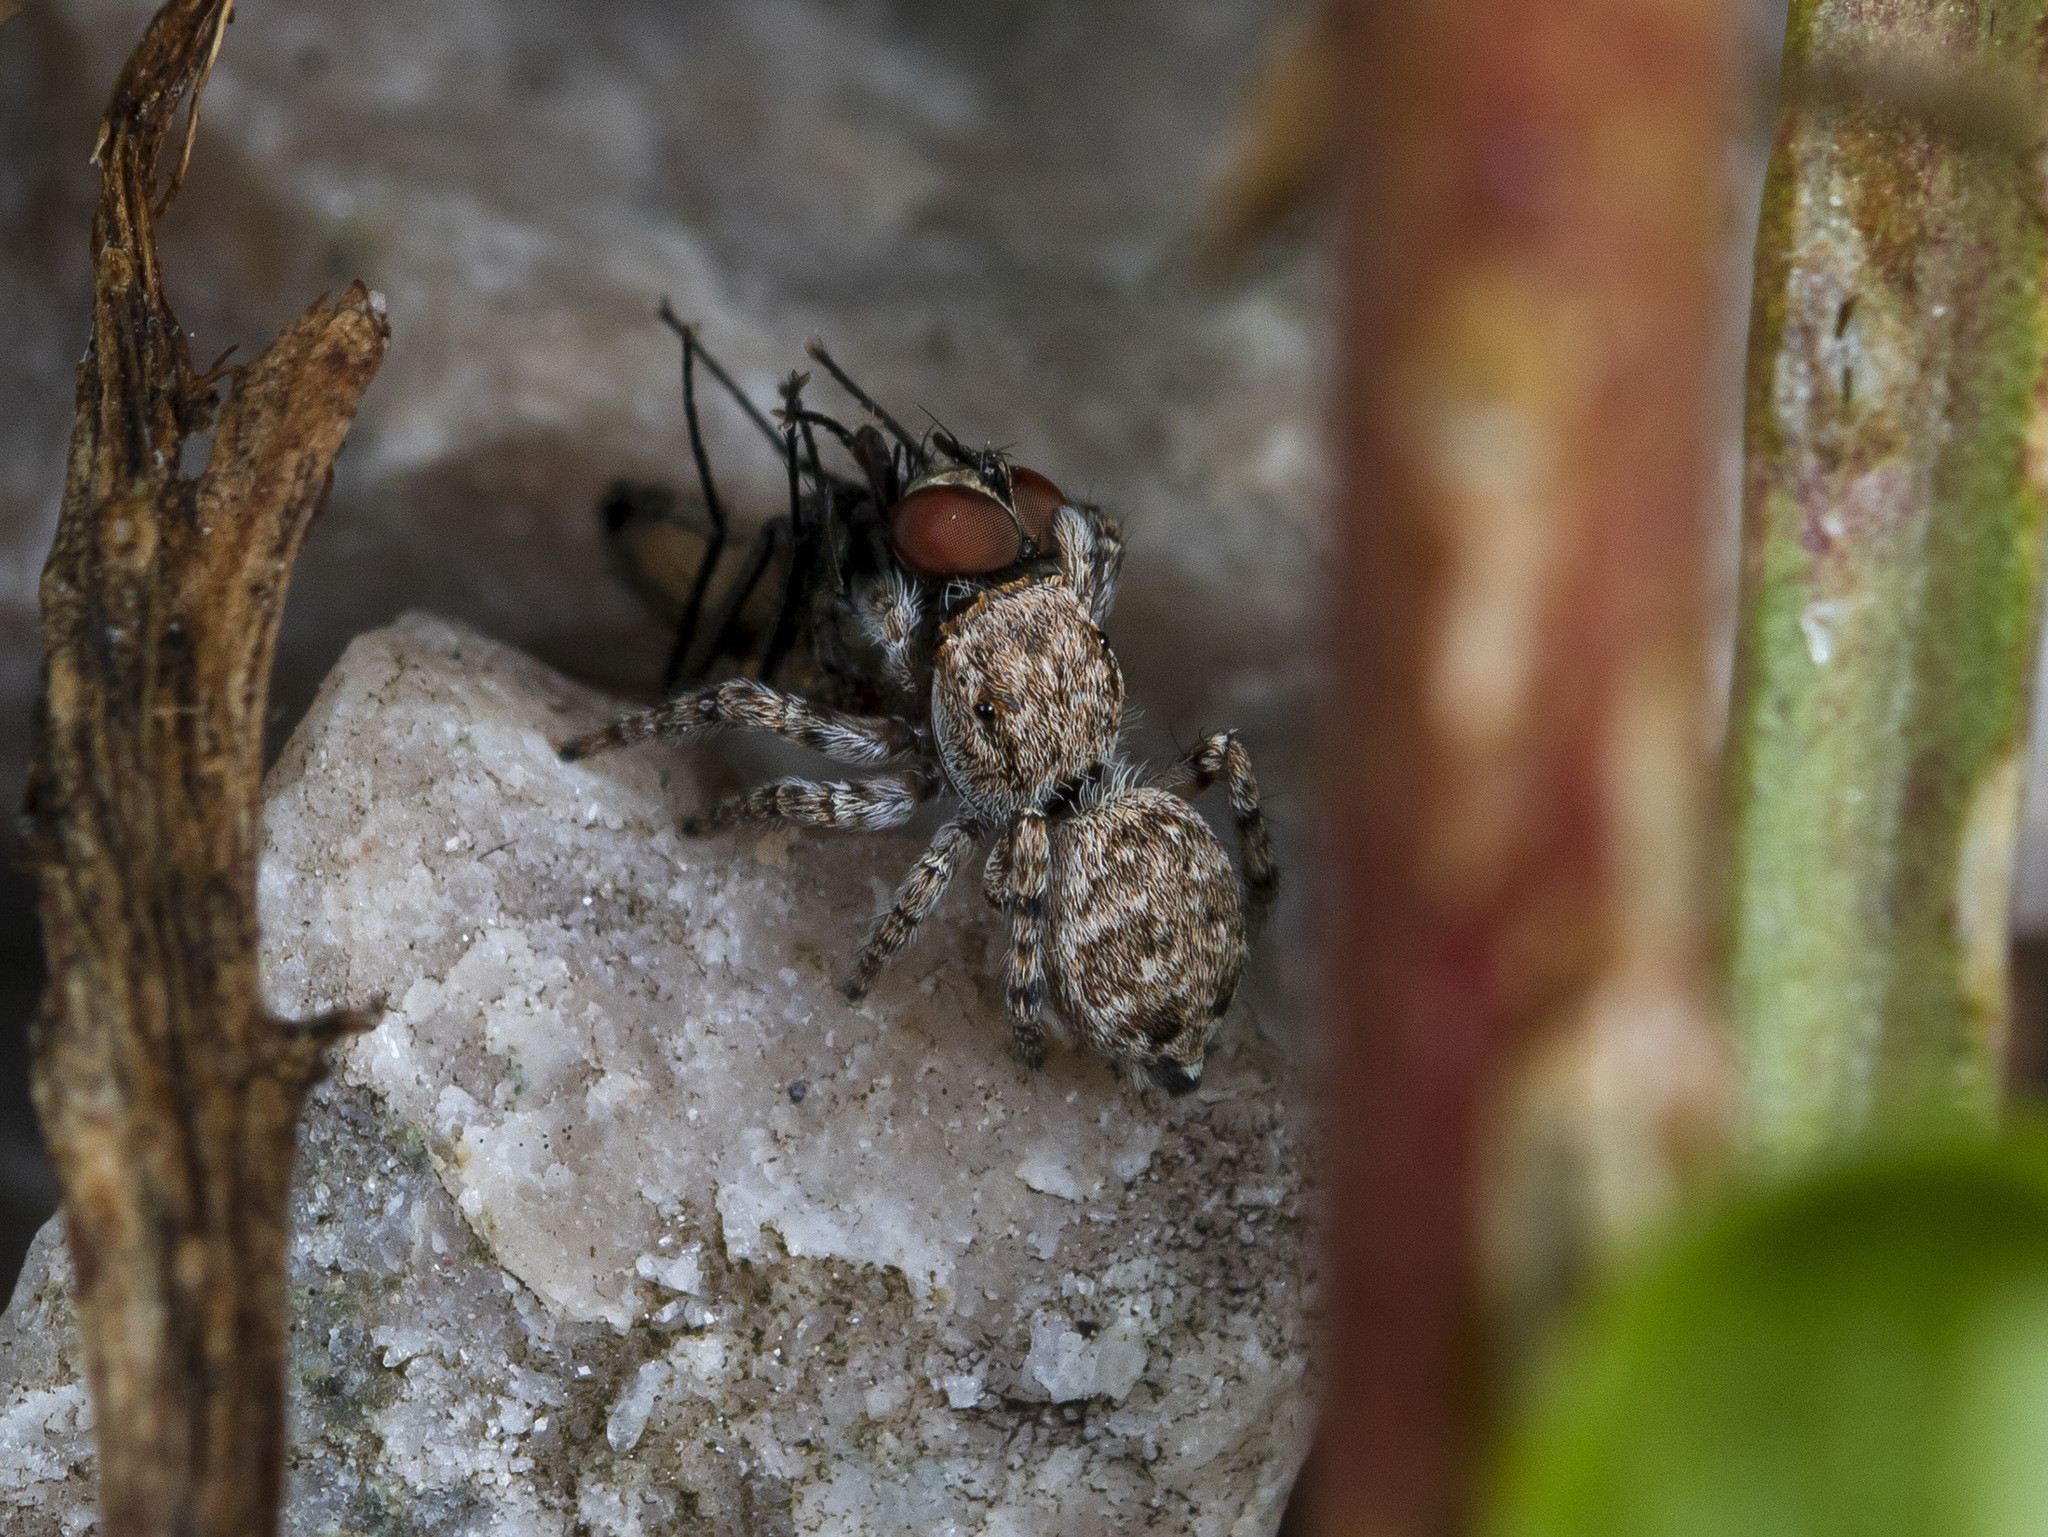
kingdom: Animalia
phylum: Arthropoda
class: Arachnida
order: Araneae
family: Salticidae
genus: Attulus
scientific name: Attulus avocator
